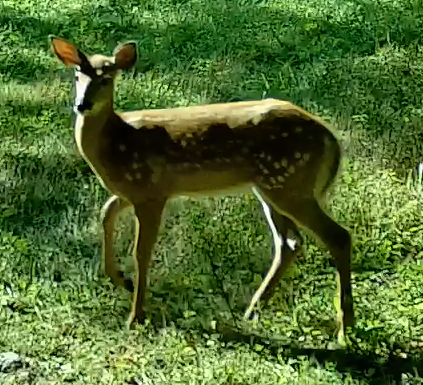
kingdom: Animalia
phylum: Chordata
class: Mammalia
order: Artiodactyla
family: Cervidae
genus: Odocoileus
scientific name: Odocoileus virginianus
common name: White-tailed deer
